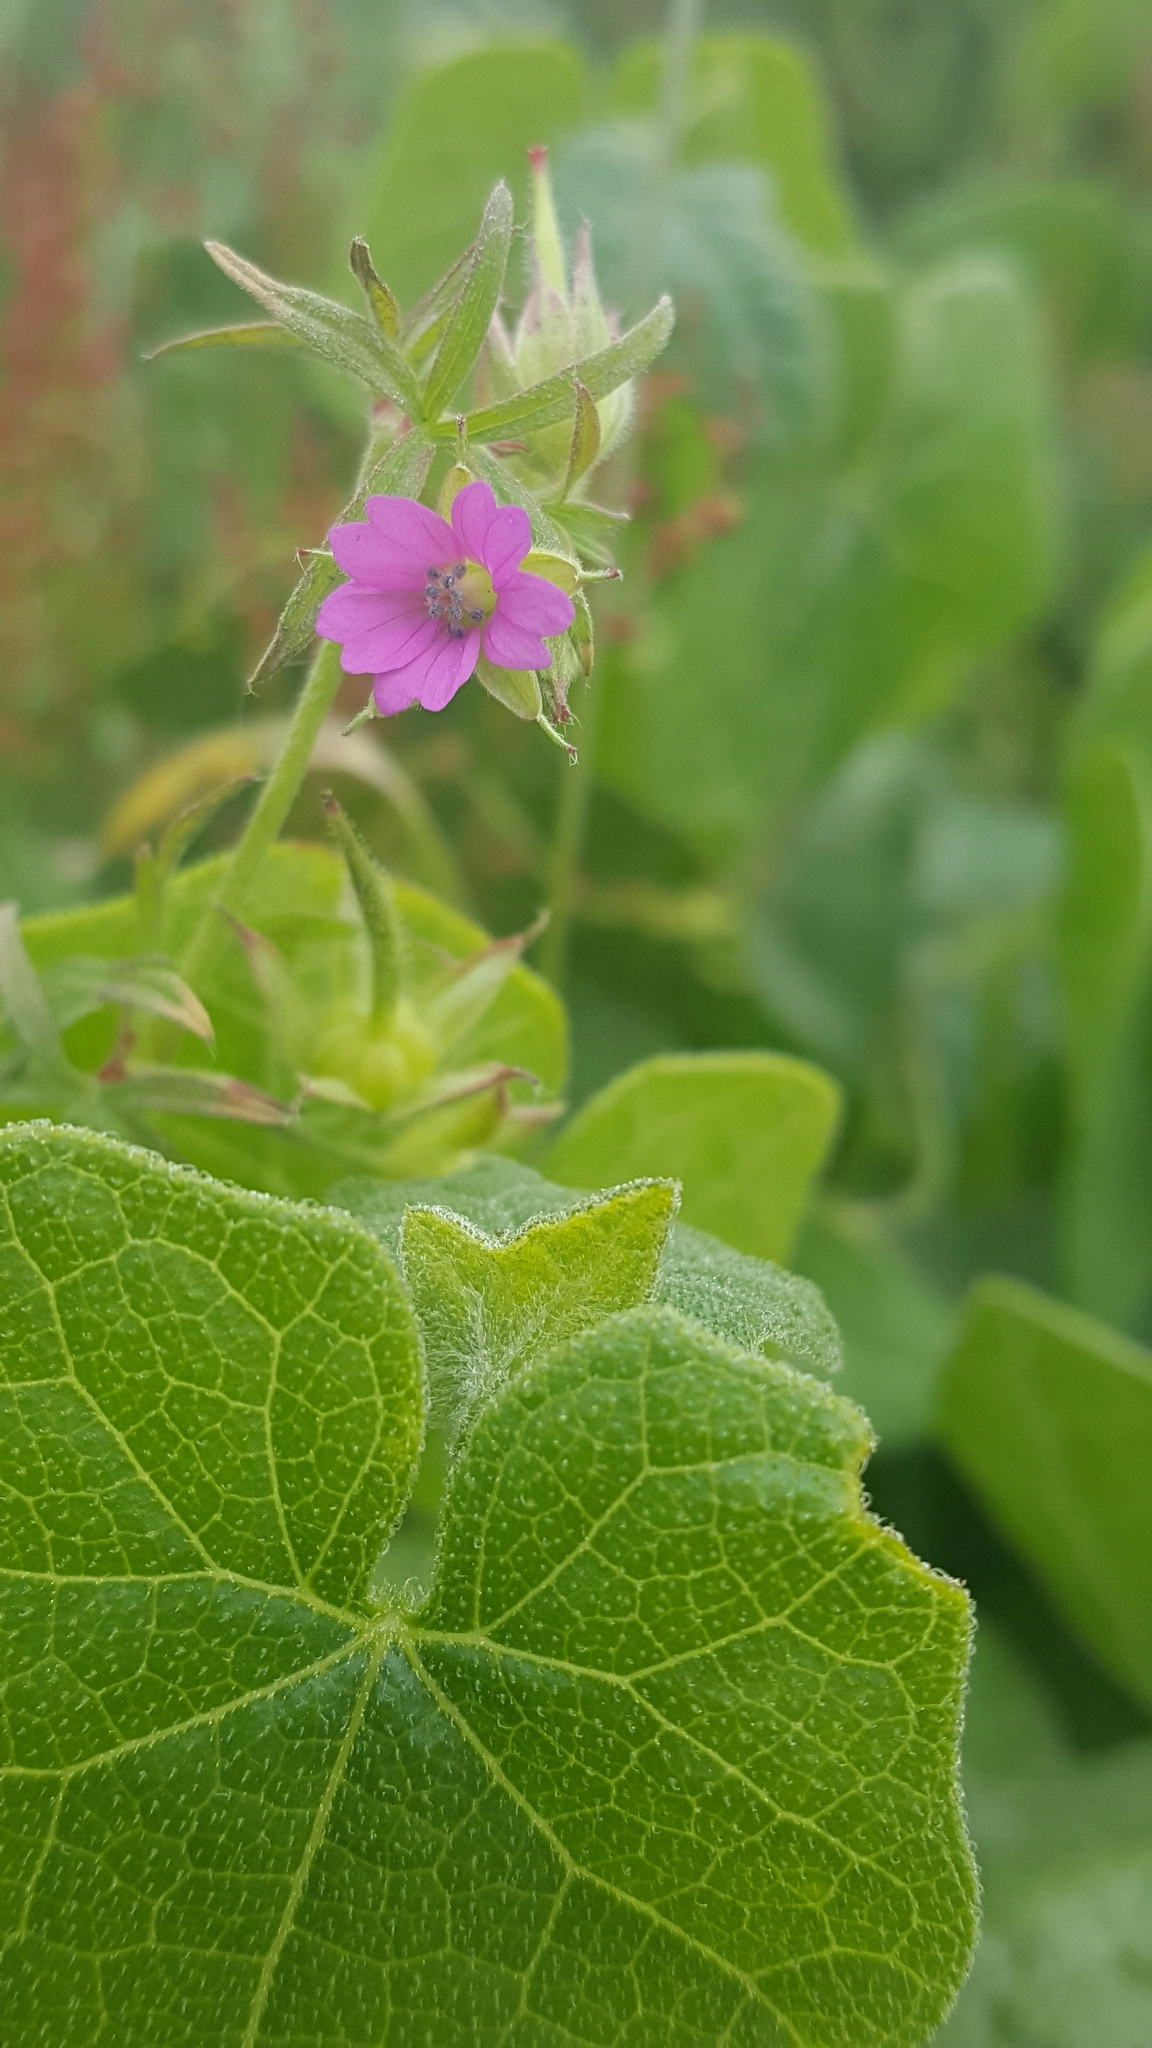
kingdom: Plantae
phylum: Tracheophyta
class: Magnoliopsida
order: Geraniales
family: Geraniaceae
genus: Geranium
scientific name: Geranium dissectum
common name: Cut-leaved crane's-bill
